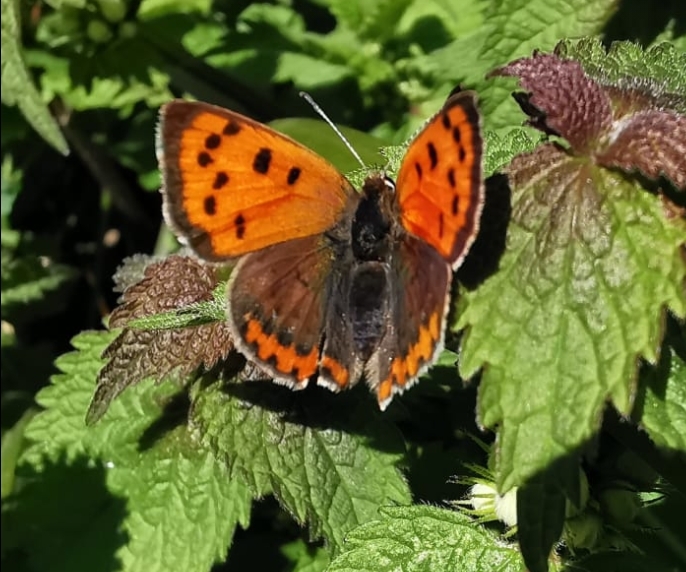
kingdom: Animalia
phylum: Arthropoda
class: Insecta
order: Lepidoptera
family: Lycaenidae
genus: Lycaena
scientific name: Lycaena phlaeas
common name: Small copper
